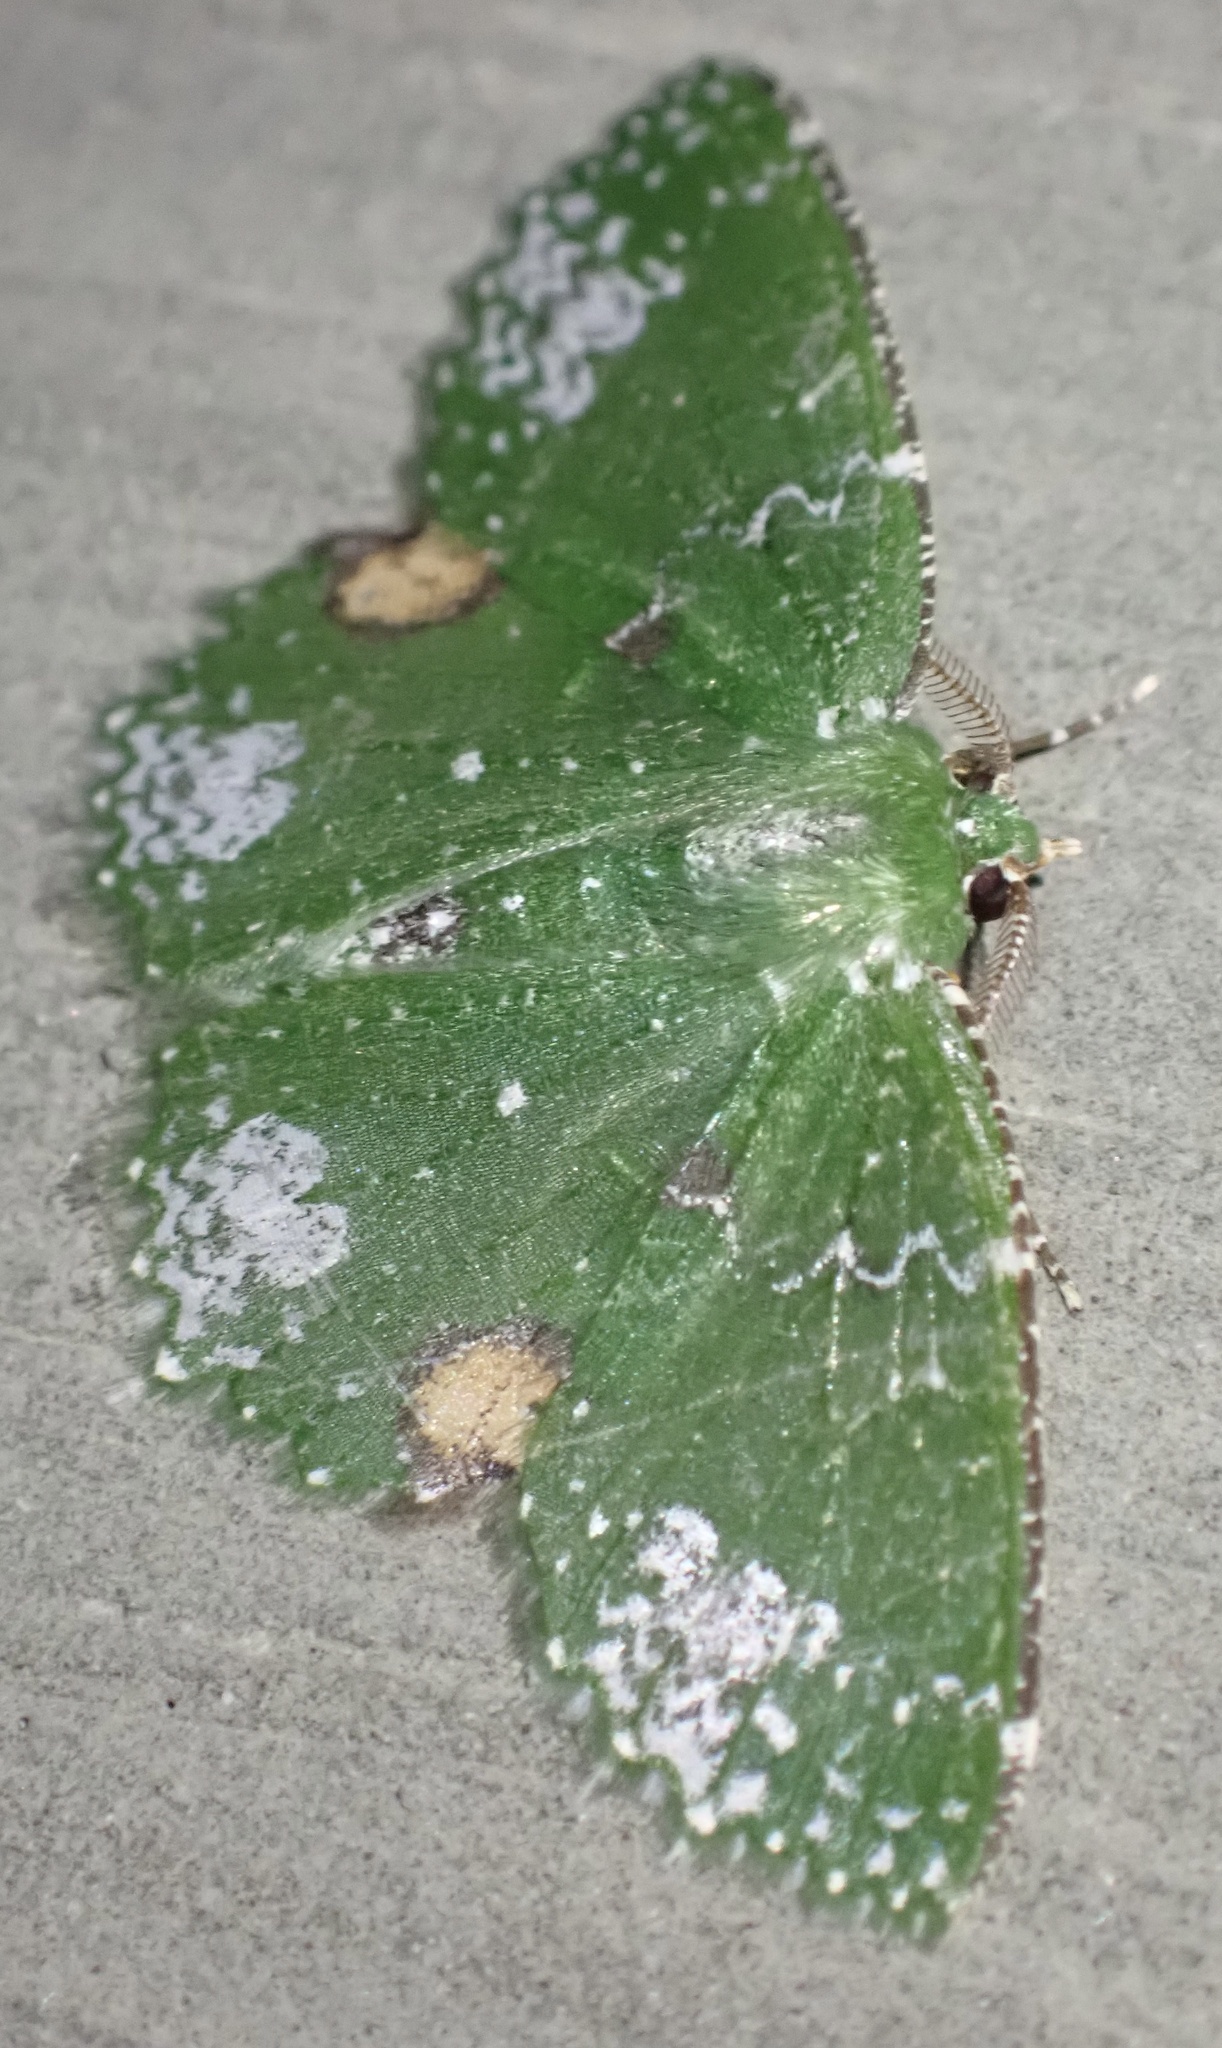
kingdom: Animalia
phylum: Arthropoda
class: Insecta
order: Lepidoptera
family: Geometridae
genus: Eucyclodes
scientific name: Eucyclodes orbimaculata
